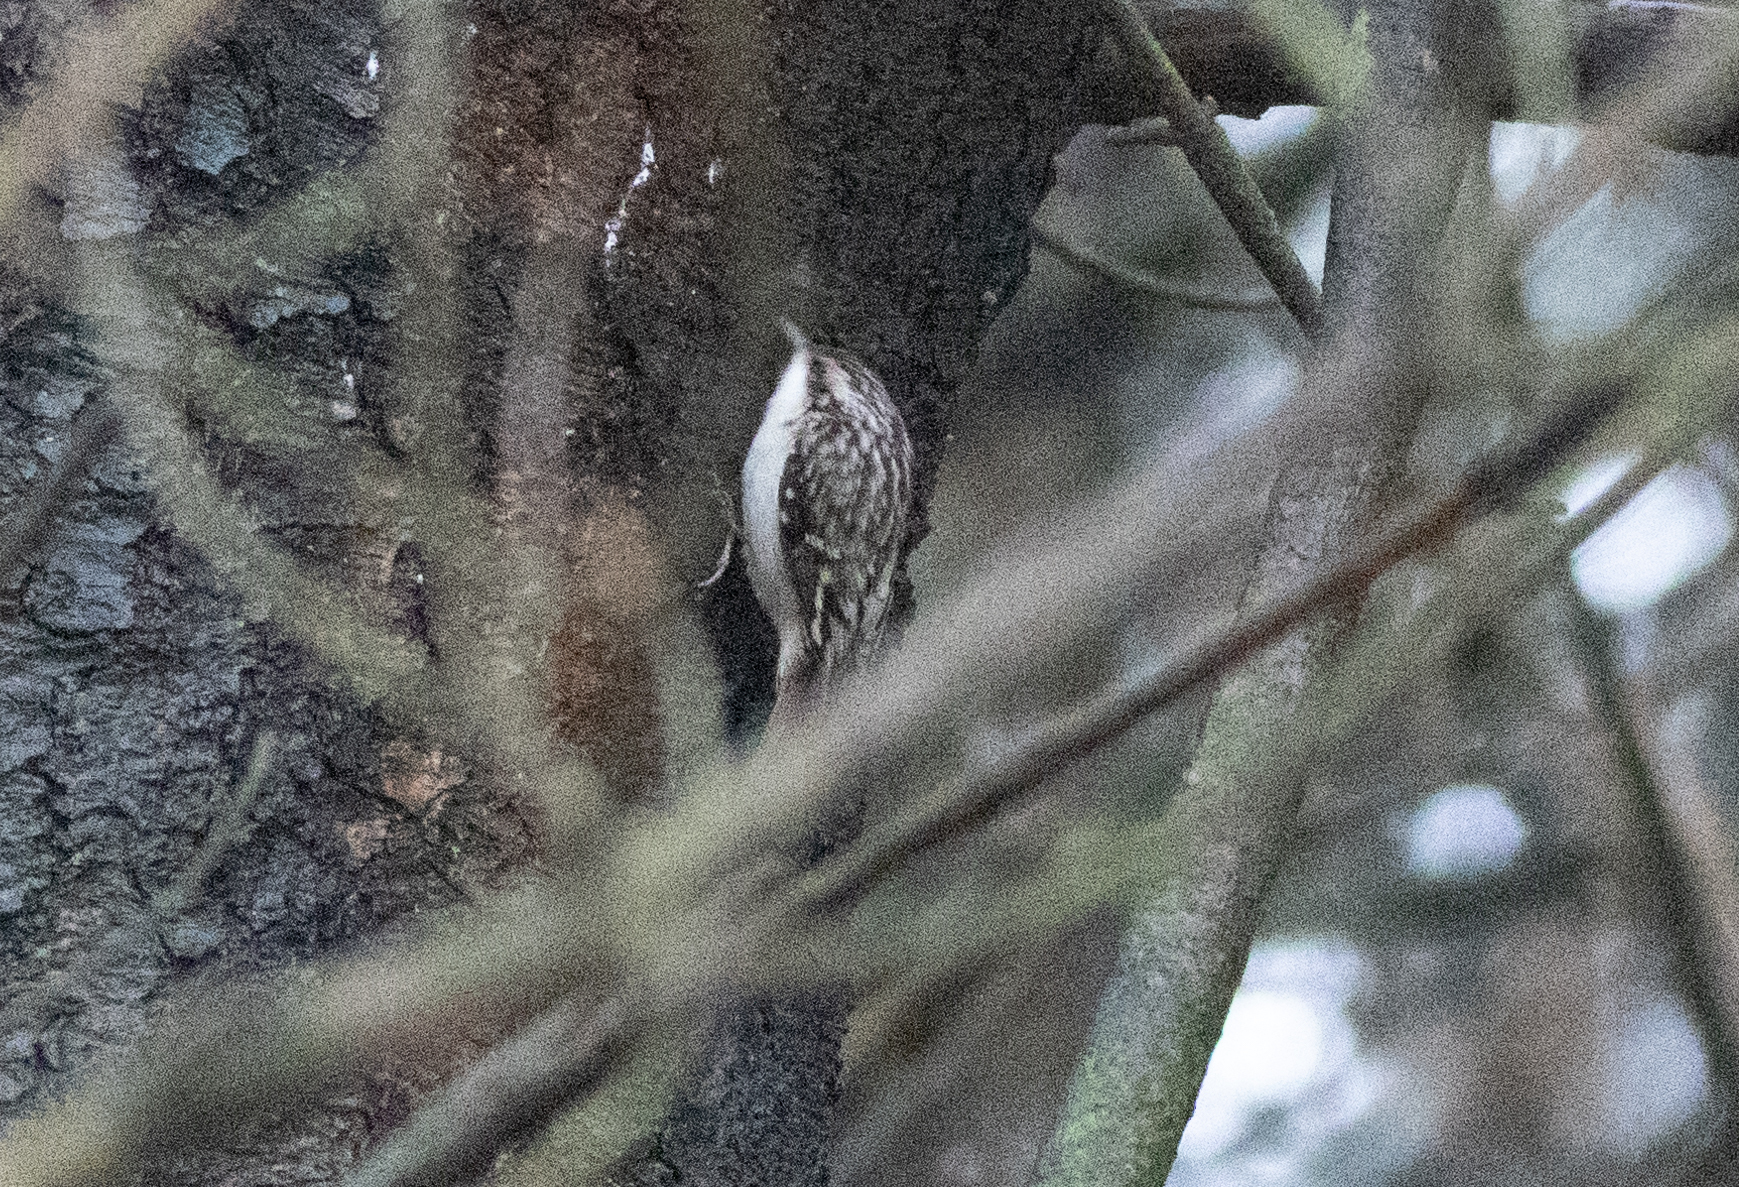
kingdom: Animalia
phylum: Chordata
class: Aves
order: Passeriformes
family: Certhiidae
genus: Certhia
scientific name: Certhia americana
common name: Brown creeper
